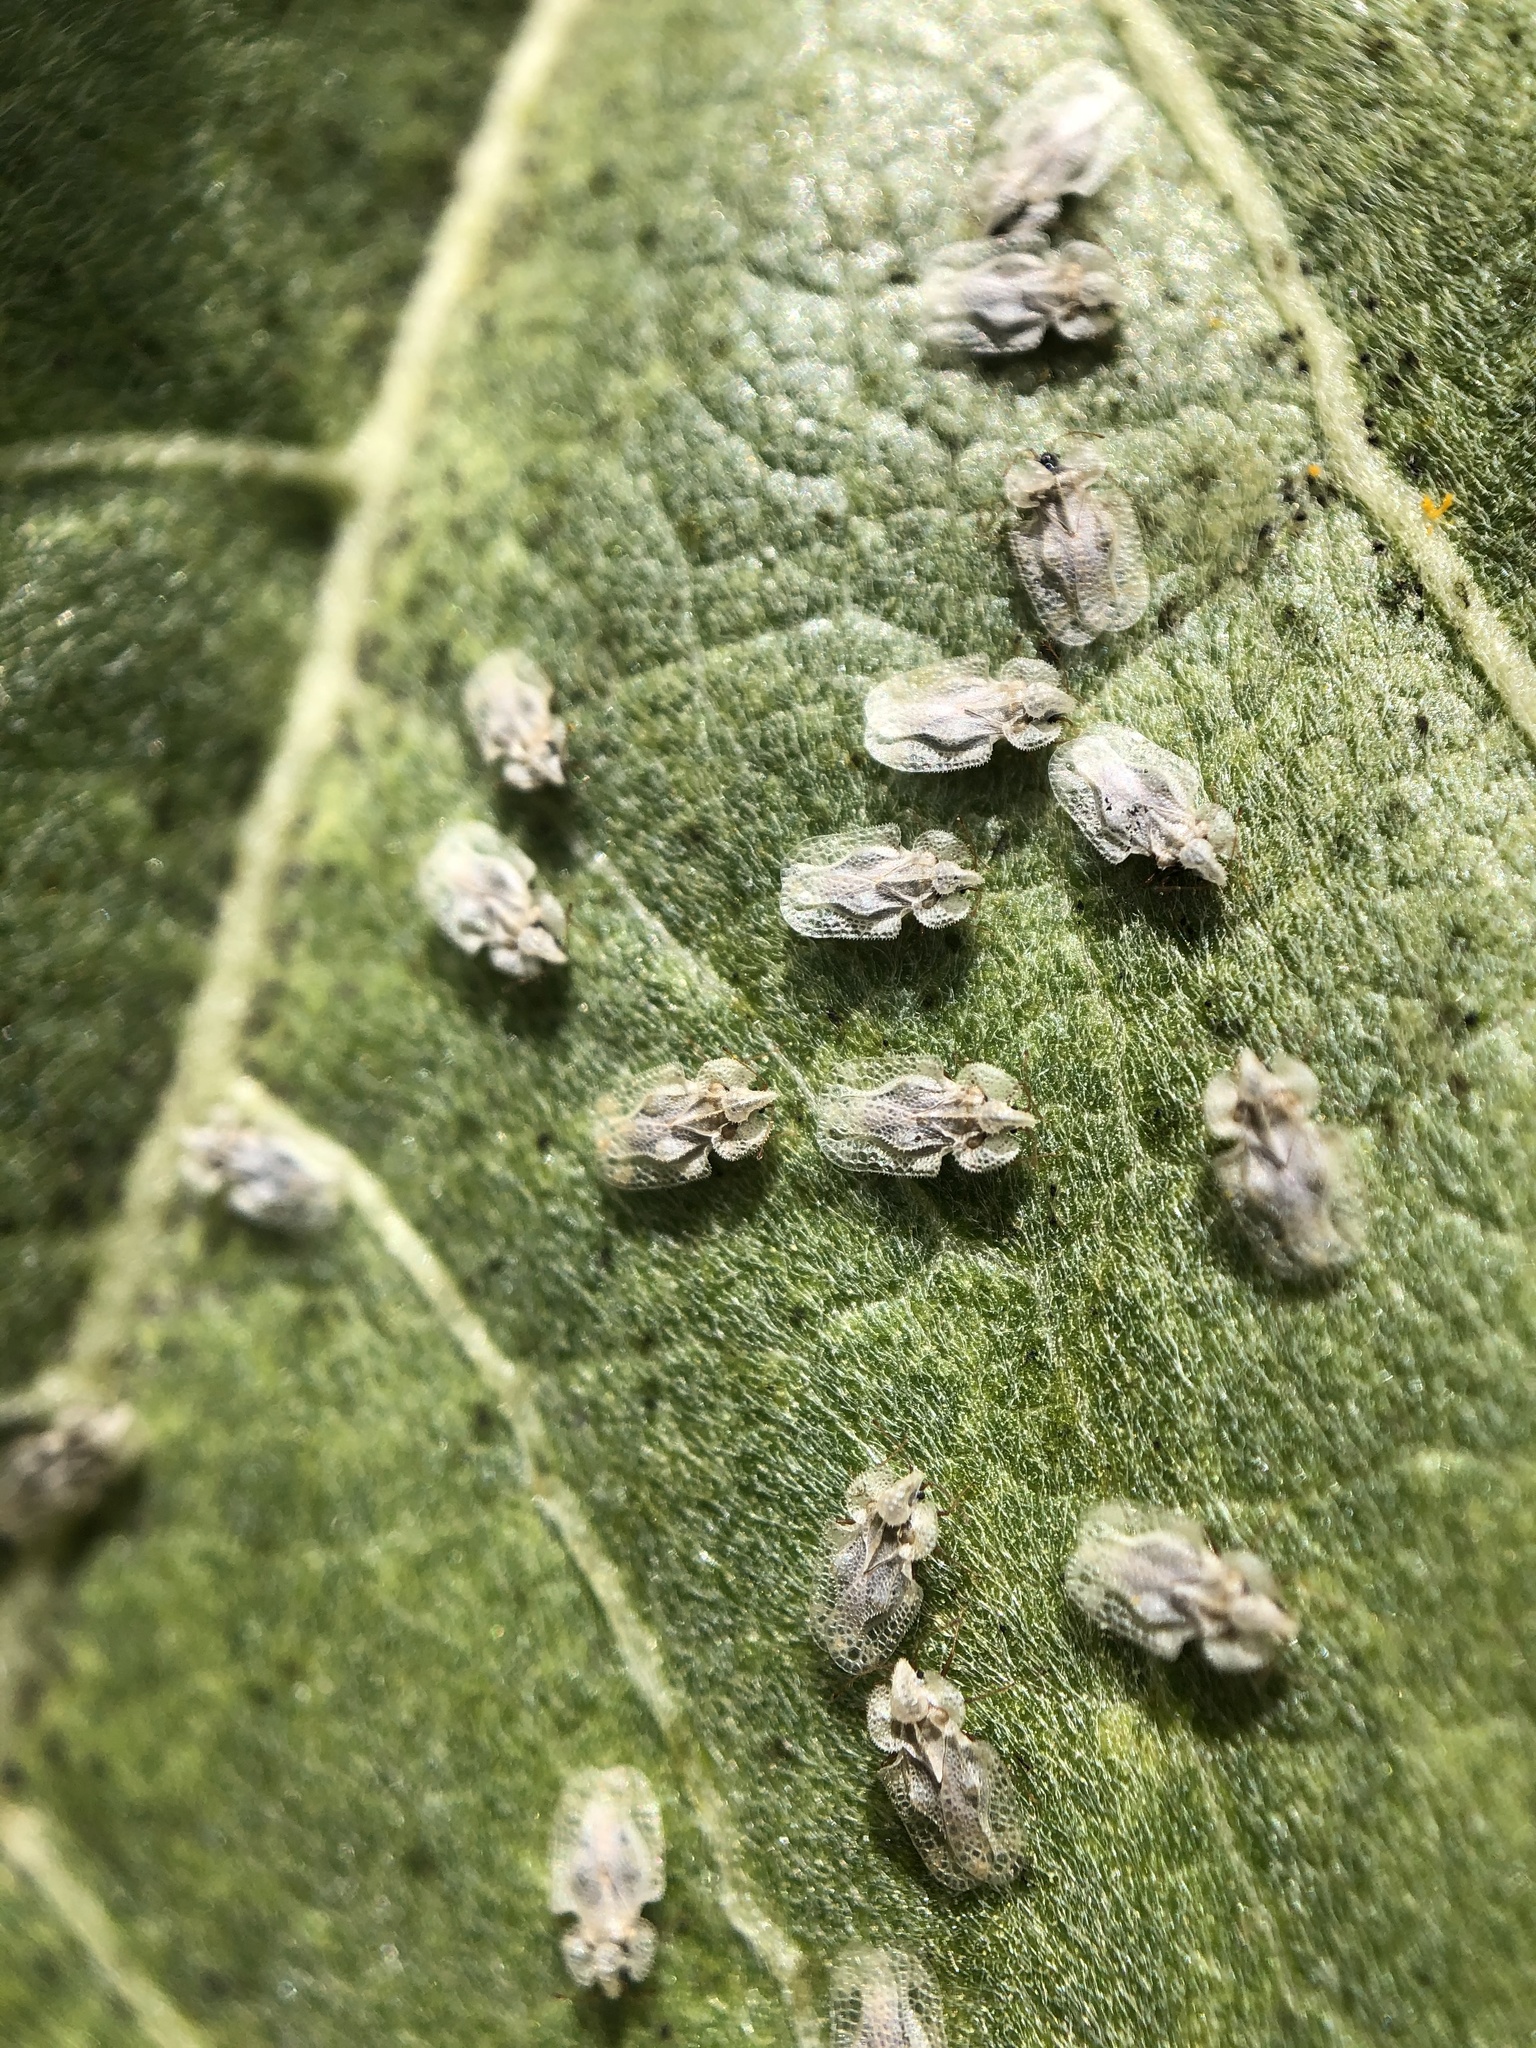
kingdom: Animalia
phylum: Arthropoda
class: Insecta
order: Hemiptera
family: Tingidae
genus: Corythucha
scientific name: Corythucha immaculata
